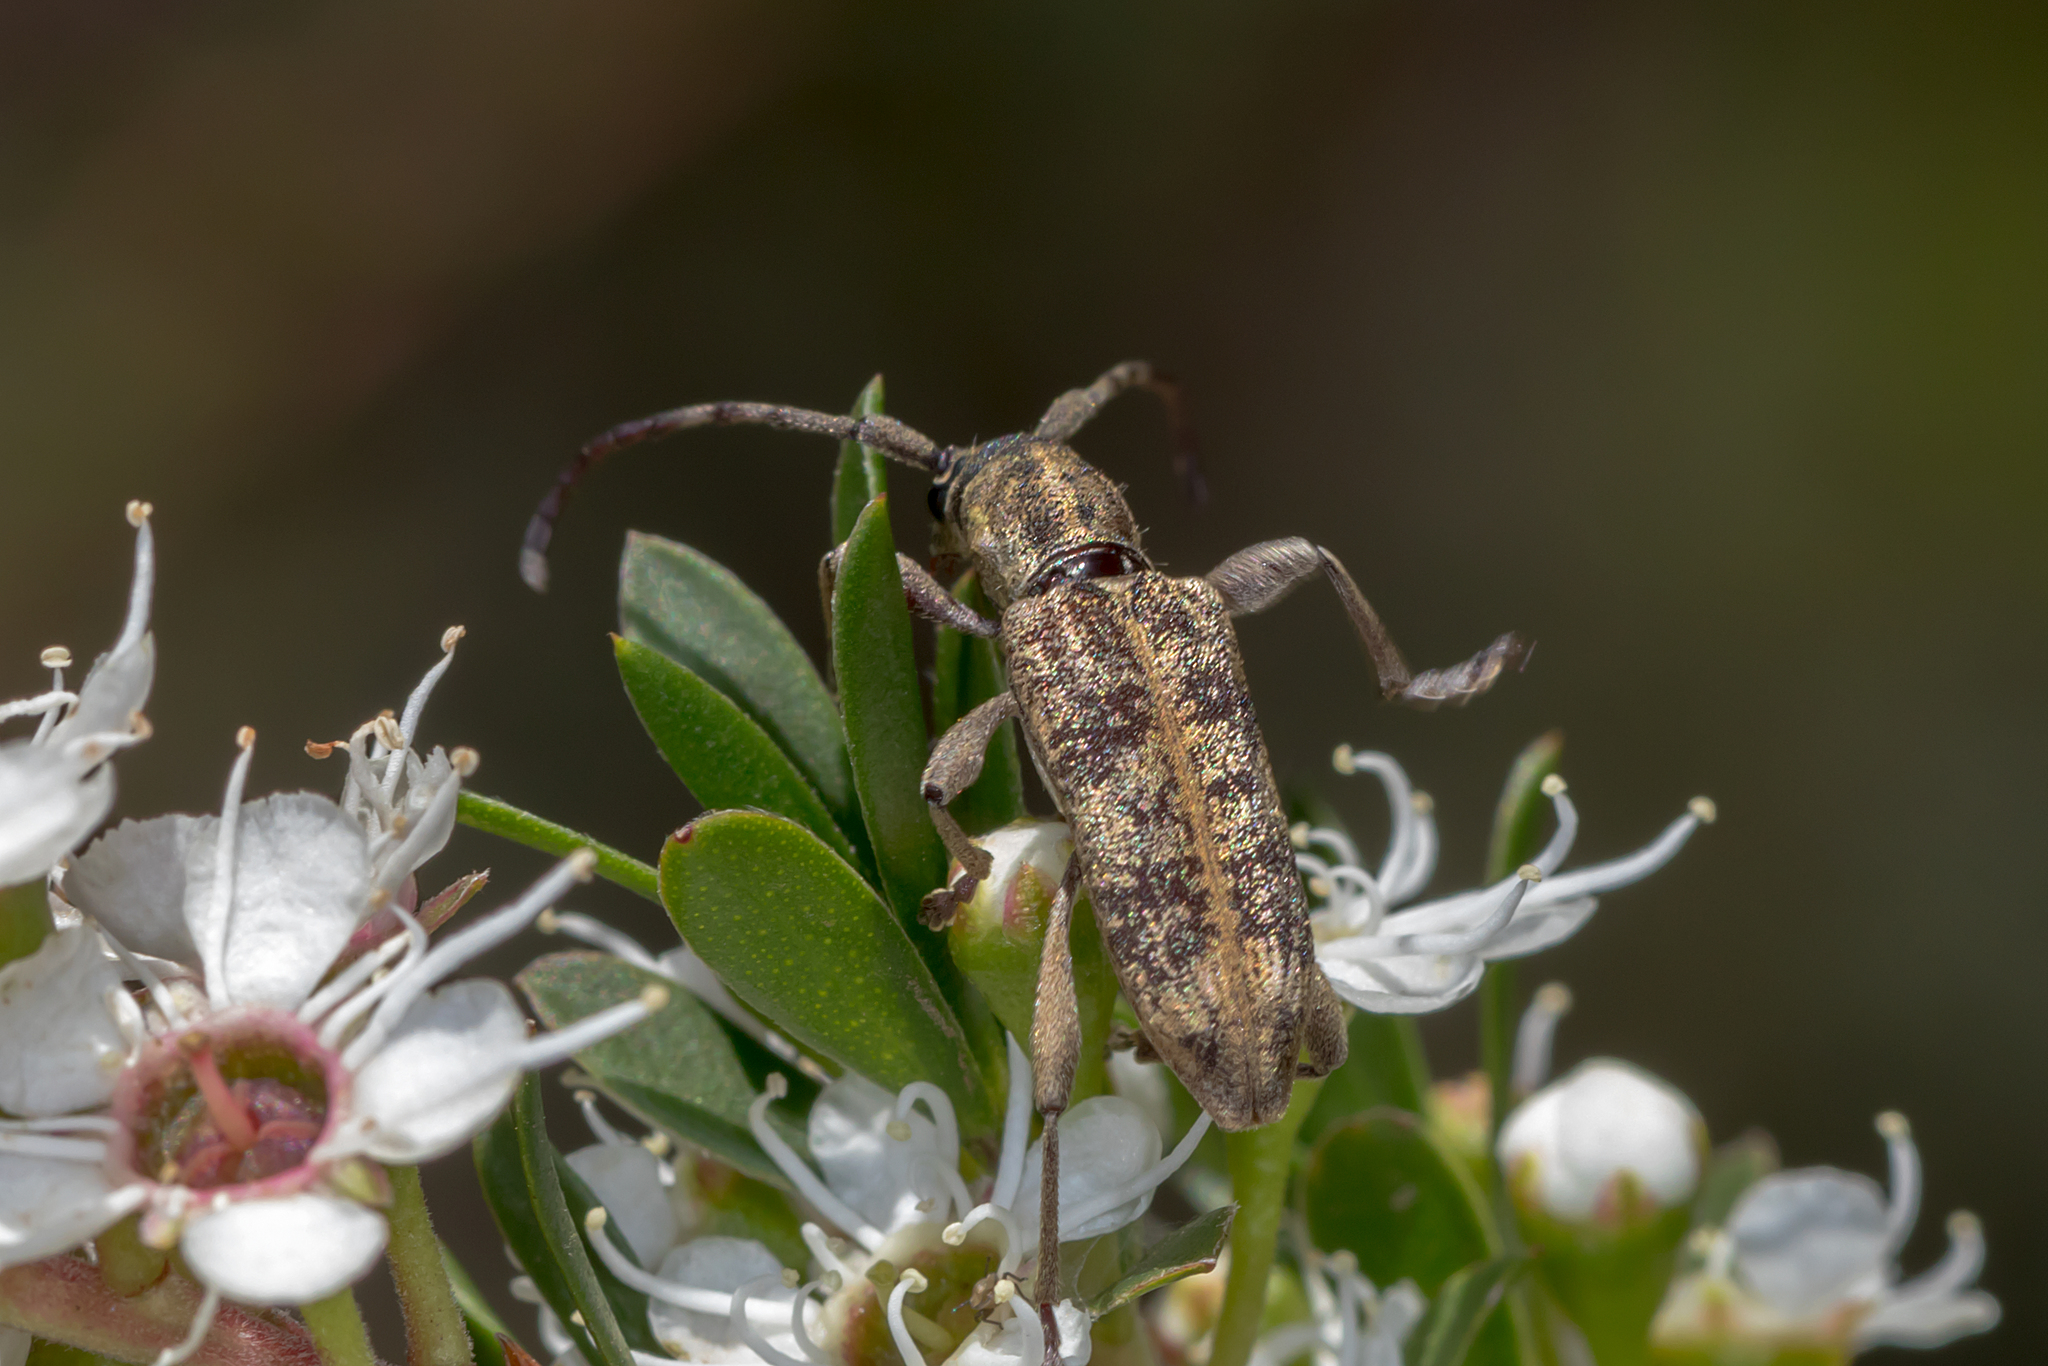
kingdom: Animalia
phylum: Arthropoda
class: Insecta
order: Coleoptera
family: Cerambycidae
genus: Pempsamacra
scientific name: Pempsamacra dispersa
